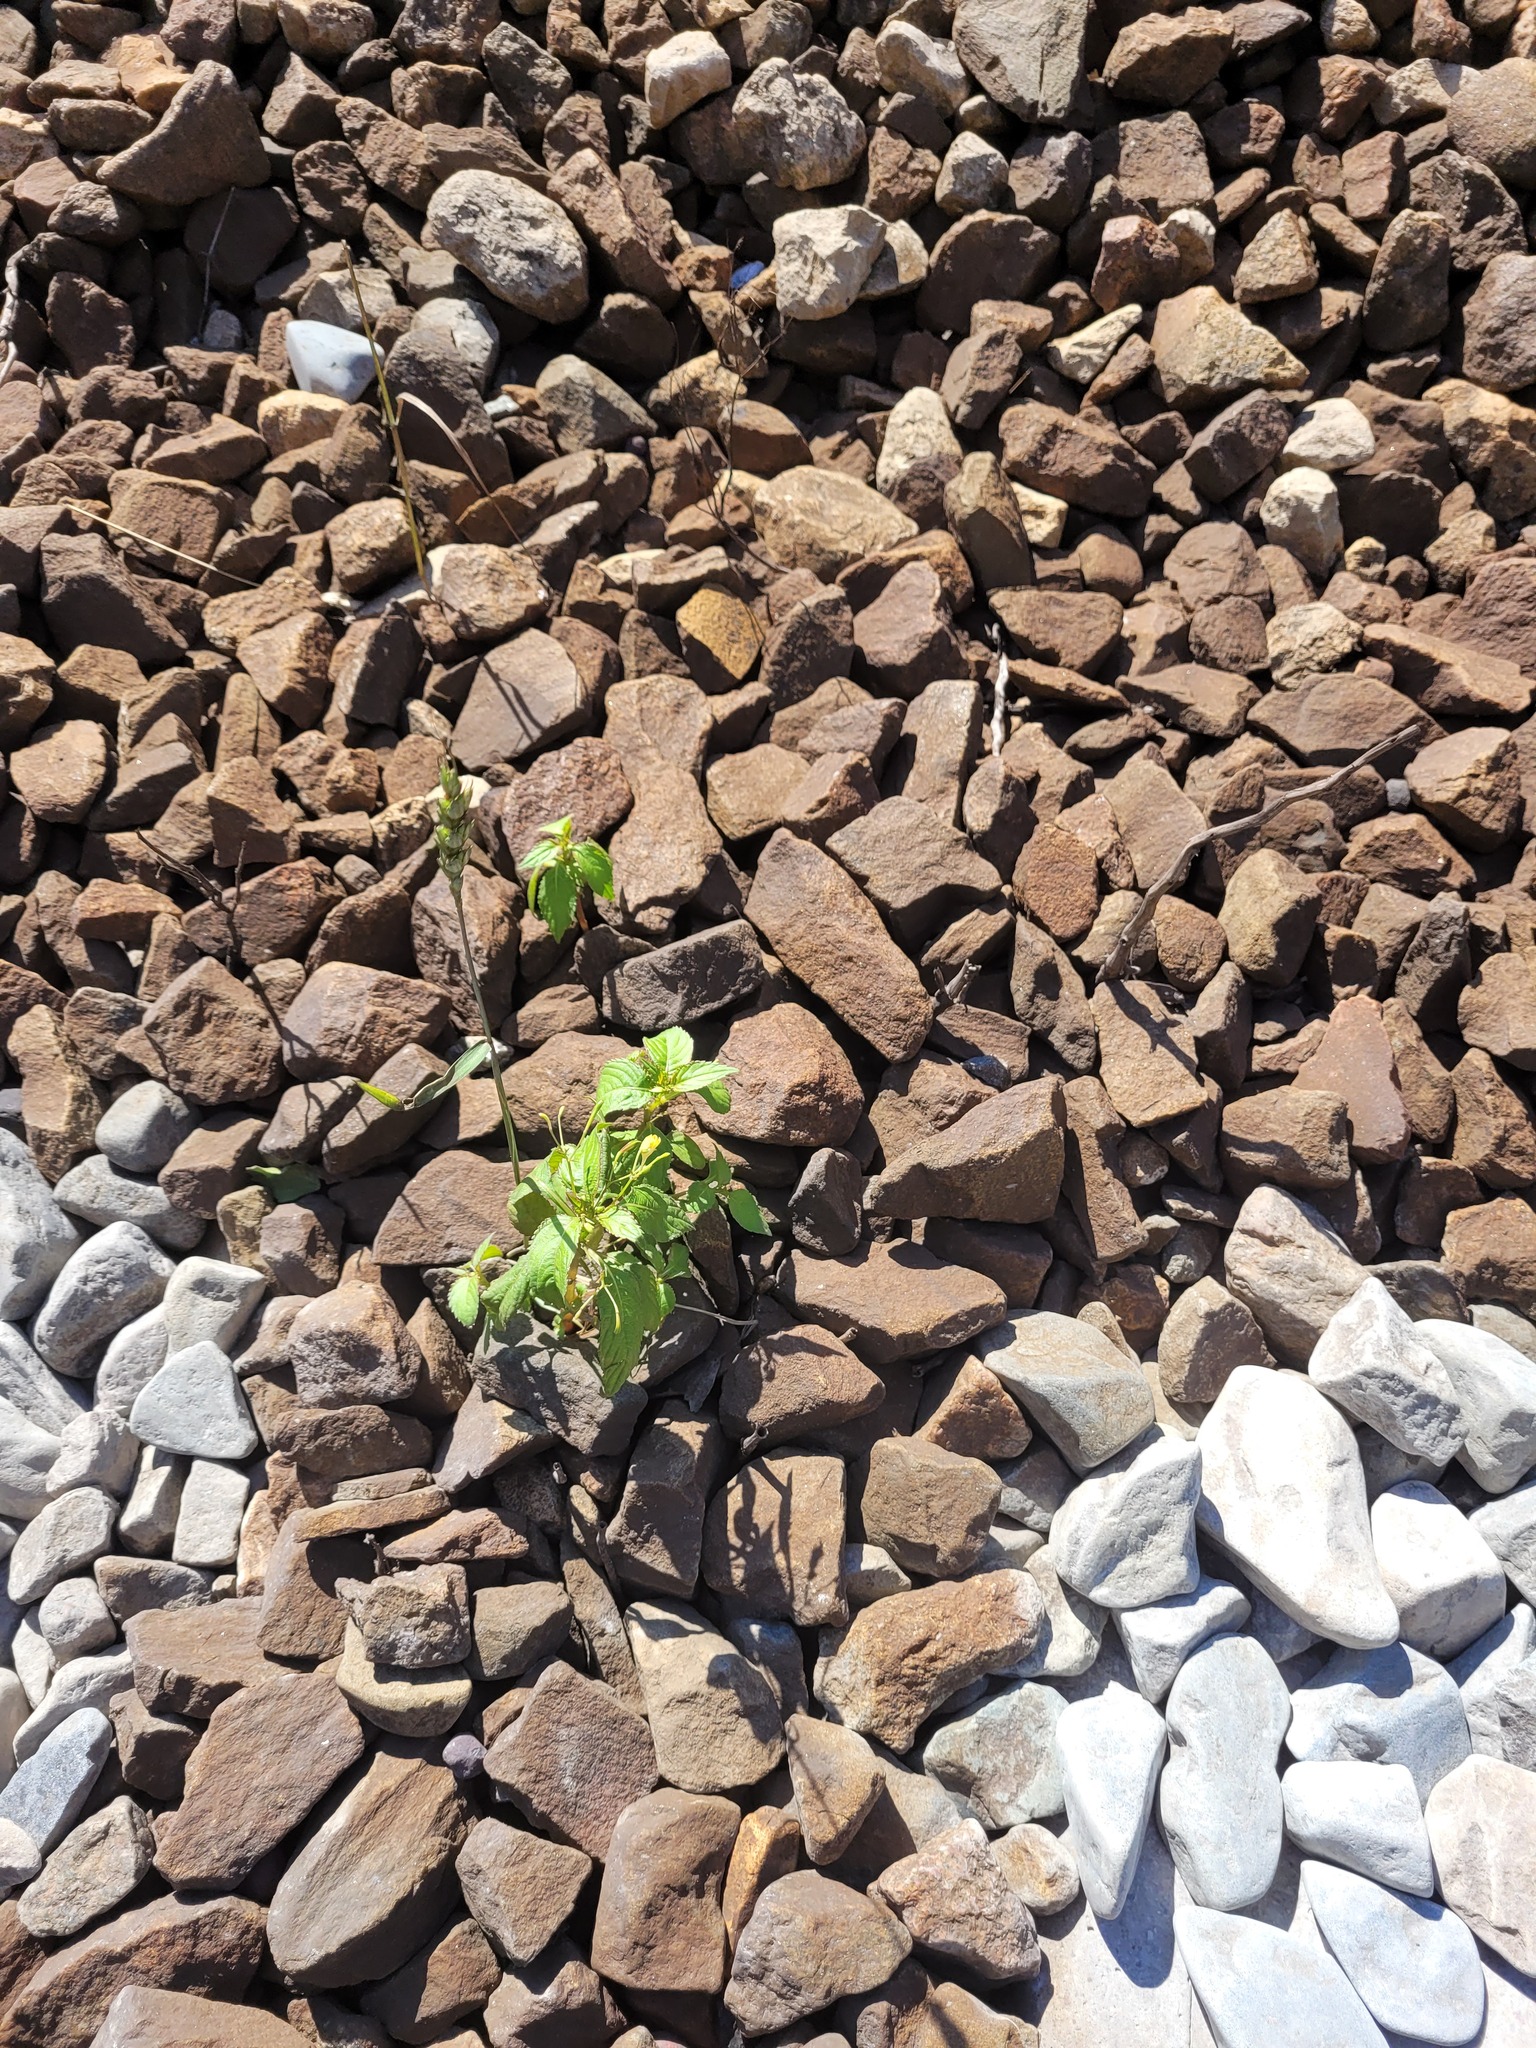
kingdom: Plantae
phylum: Tracheophyta
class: Magnoliopsida
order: Ericales
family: Balsaminaceae
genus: Impatiens
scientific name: Impatiens parviflora
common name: Small balsam
